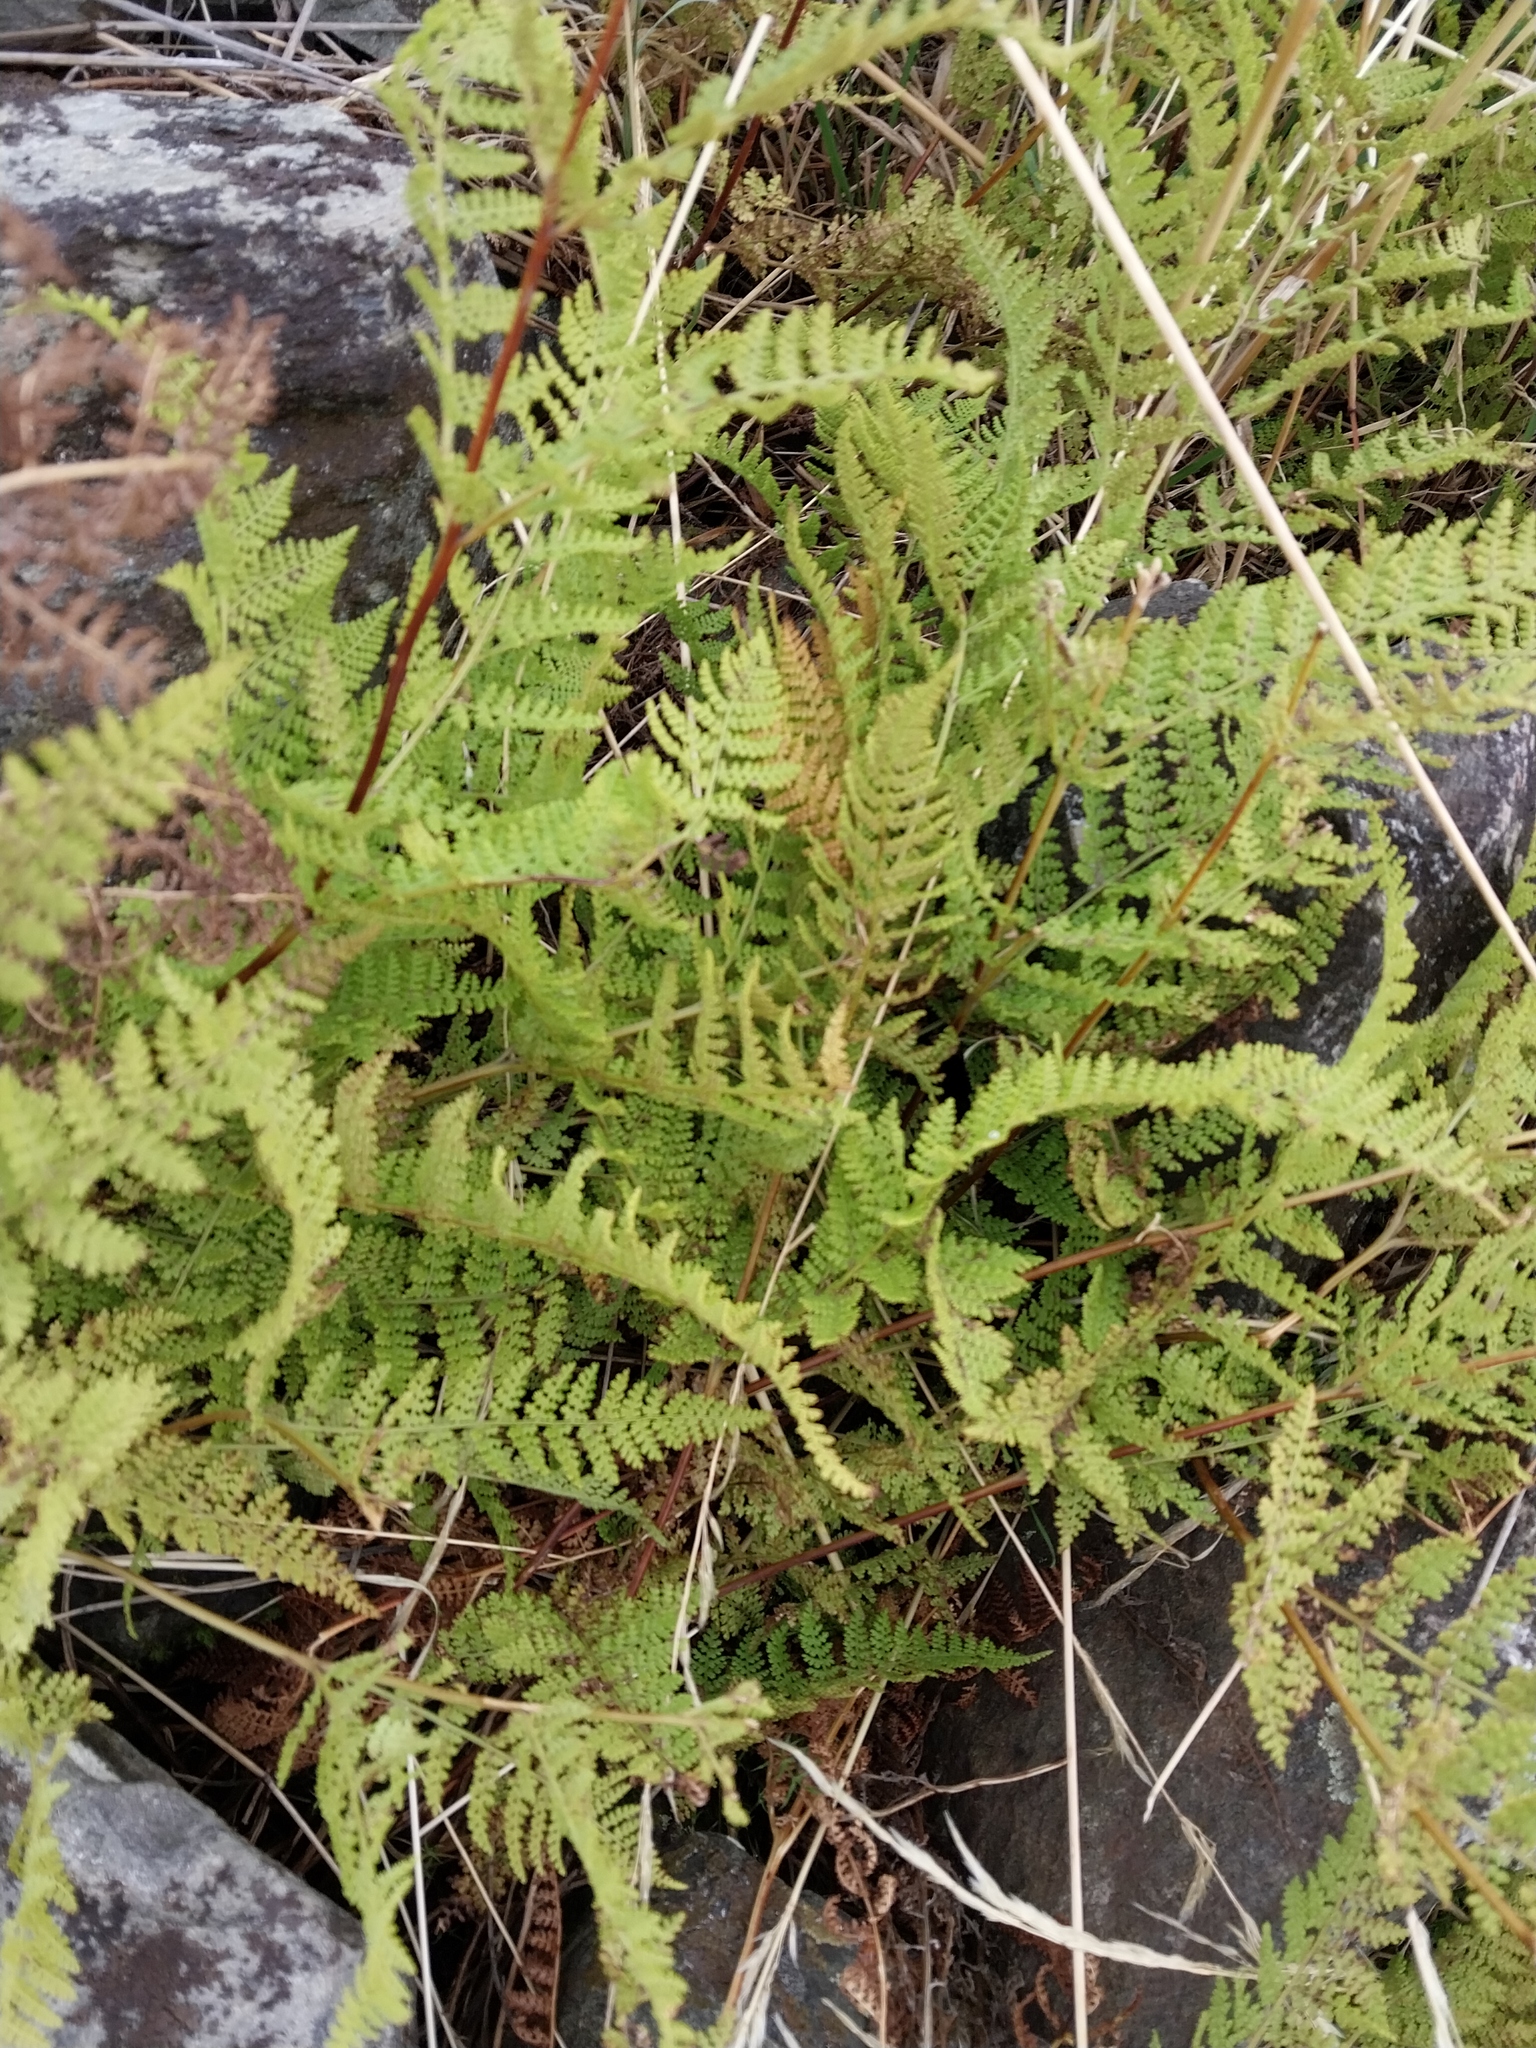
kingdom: Plantae
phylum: Tracheophyta
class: Polypodiopsida
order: Polypodiales
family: Dennstaedtiaceae
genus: Hypolepis
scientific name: Hypolepis ambigua
